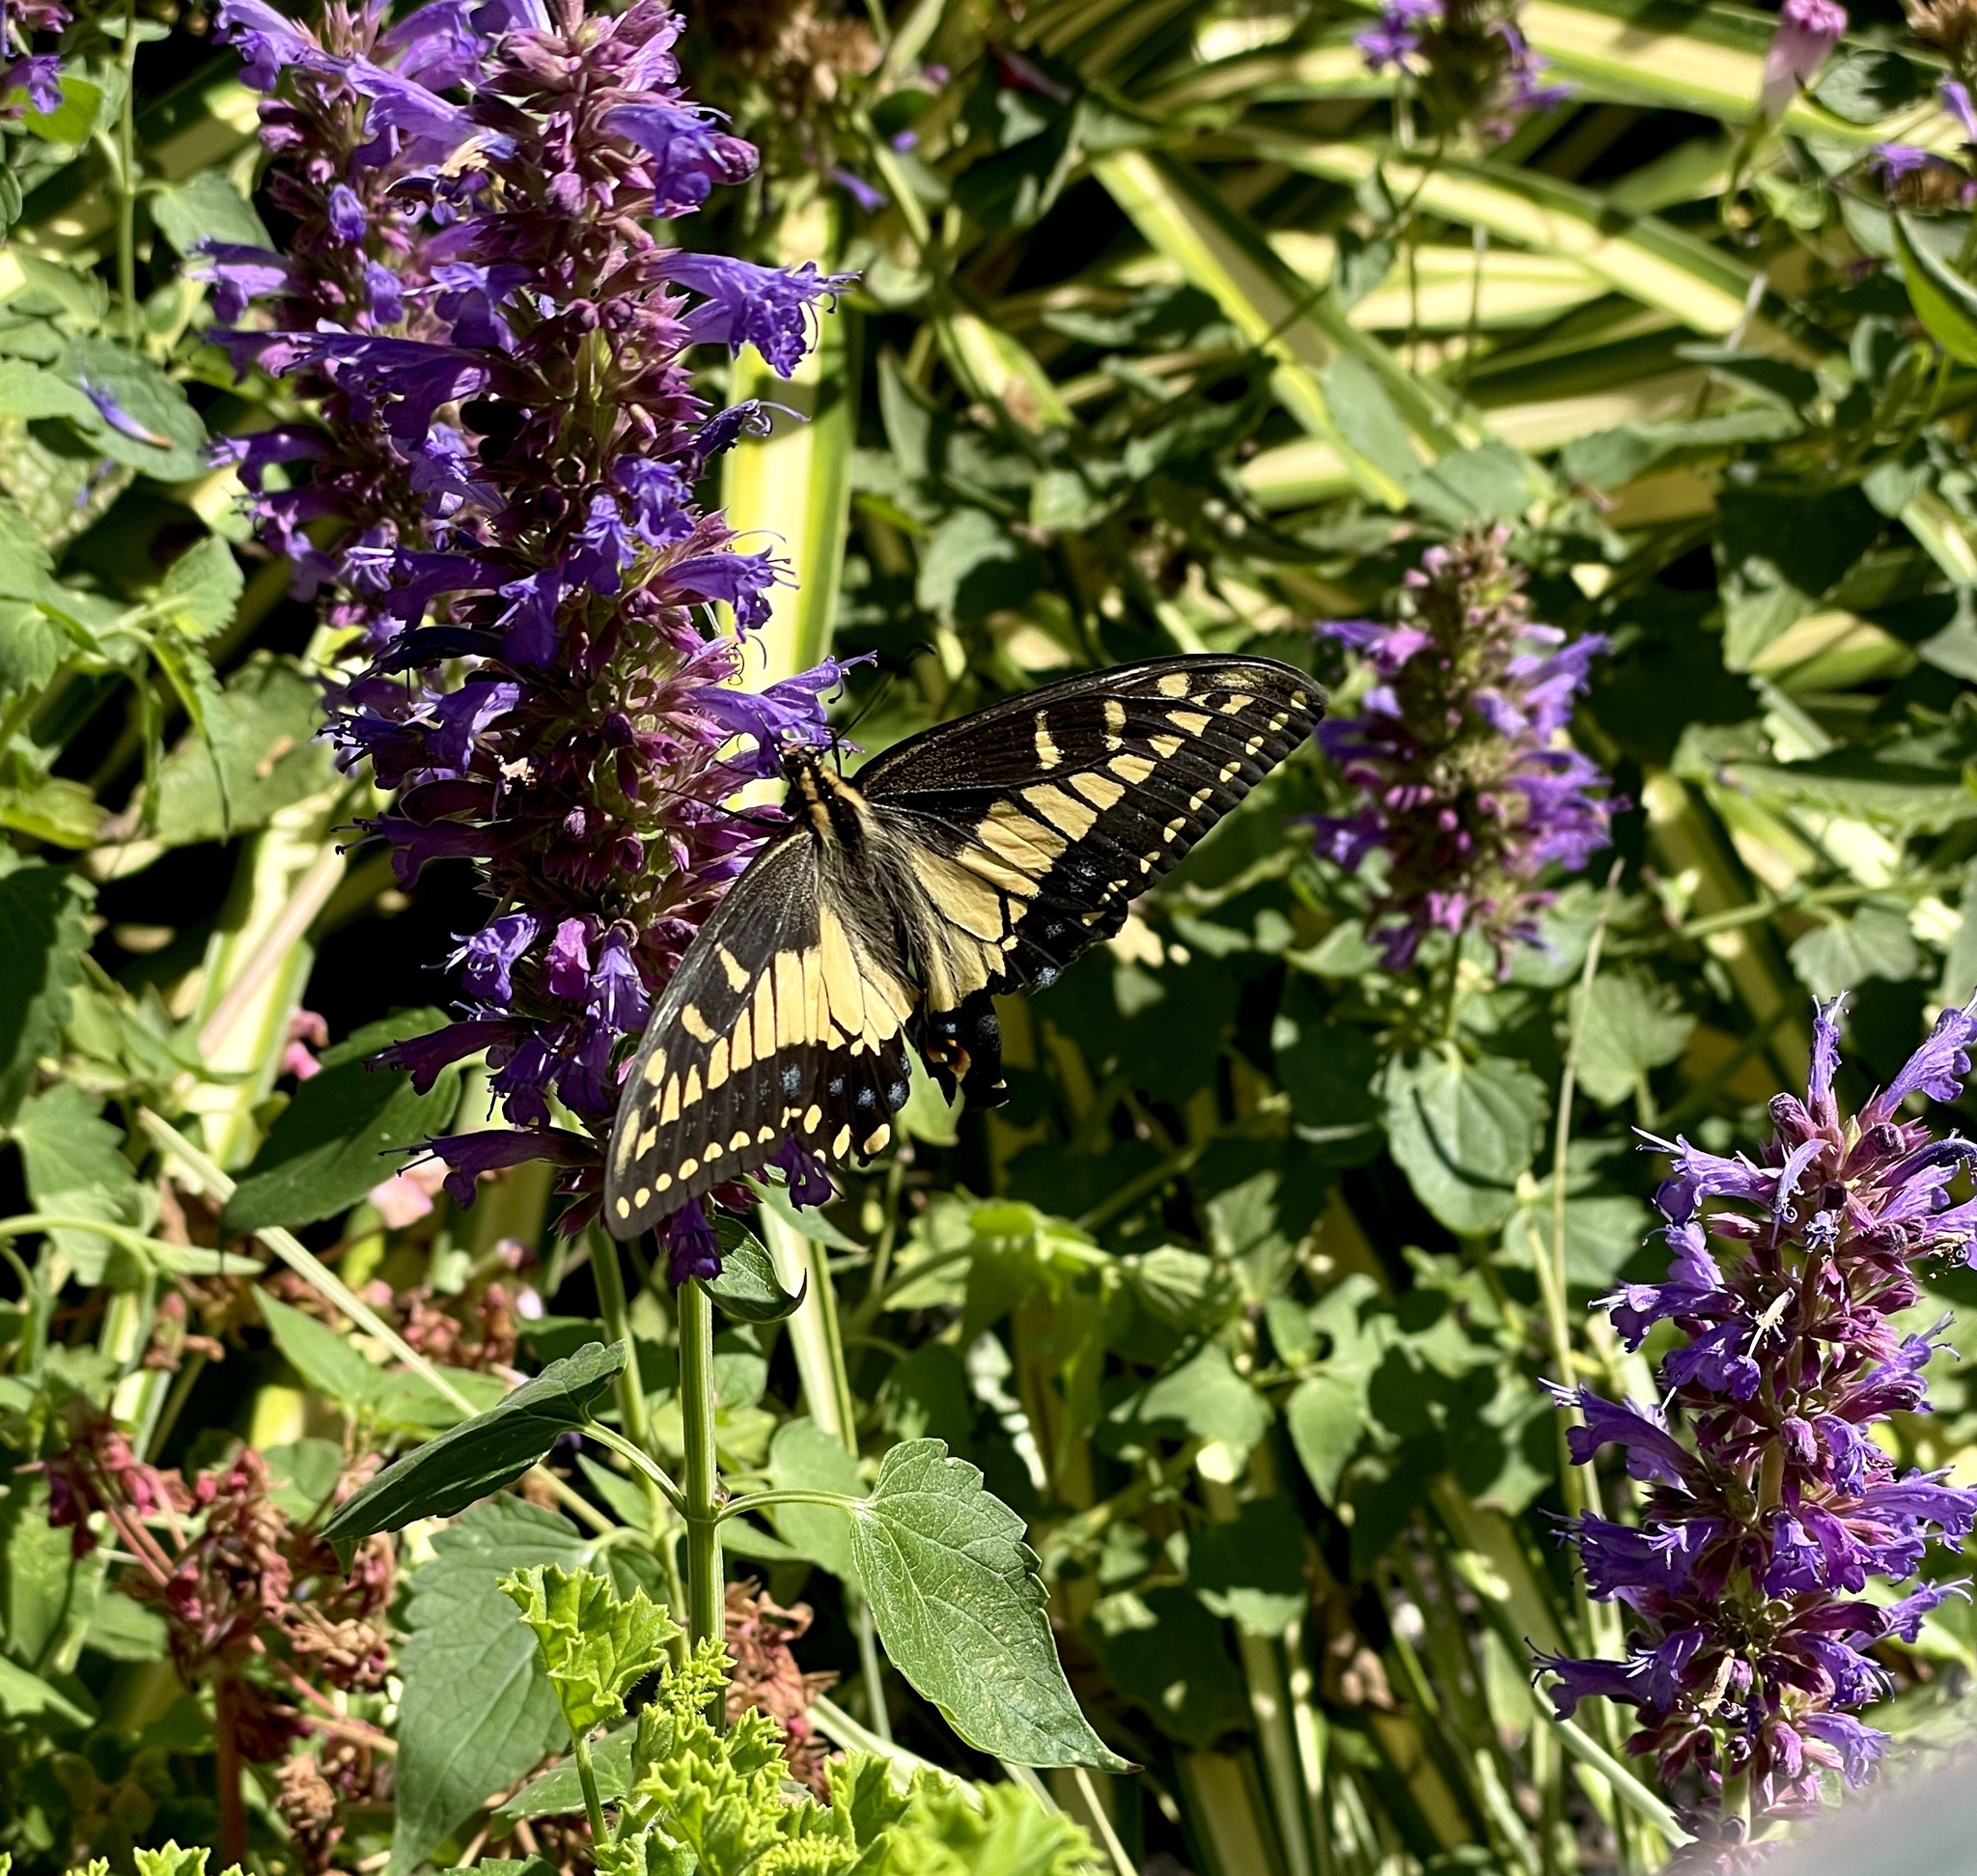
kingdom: Animalia
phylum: Arthropoda
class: Insecta
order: Lepidoptera
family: Papilionidae
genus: Papilio
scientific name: Papilio zelicaon
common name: Anise swallowtail
